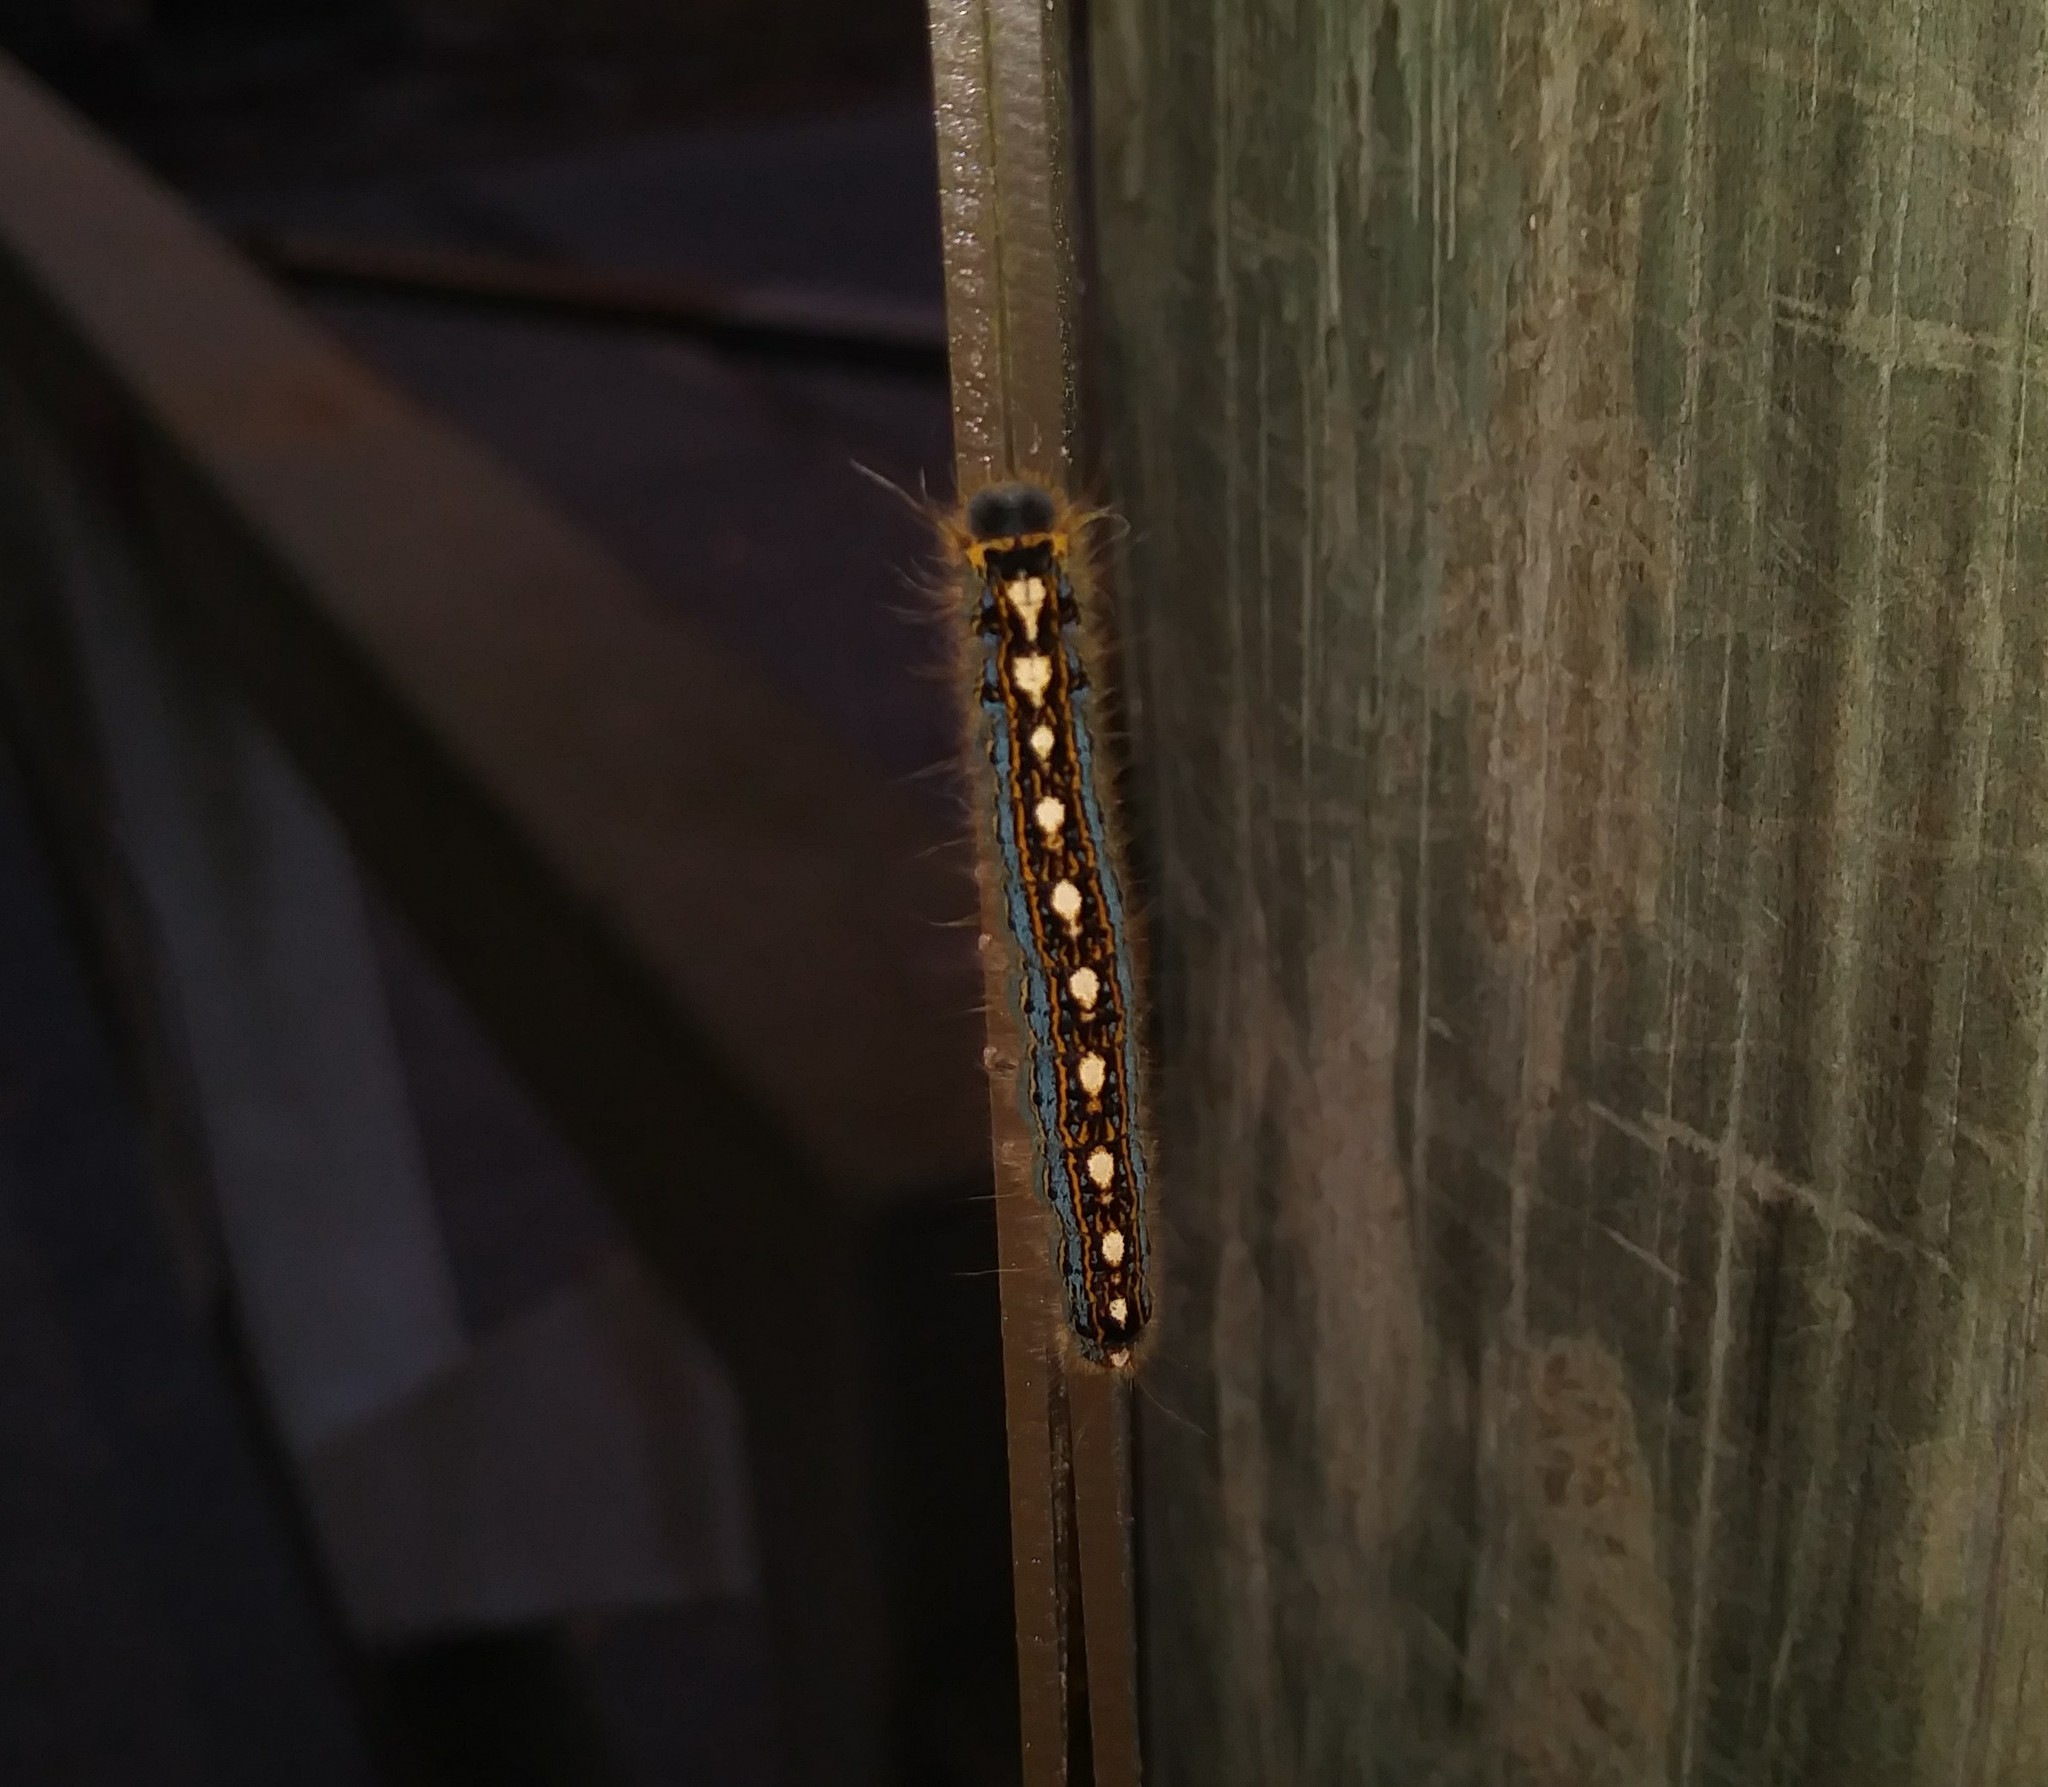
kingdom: Animalia
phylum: Arthropoda
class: Insecta
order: Lepidoptera
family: Lasiocampidae
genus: Malacosoma
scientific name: Malacosoma disstria
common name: Forest tent caterpillar
